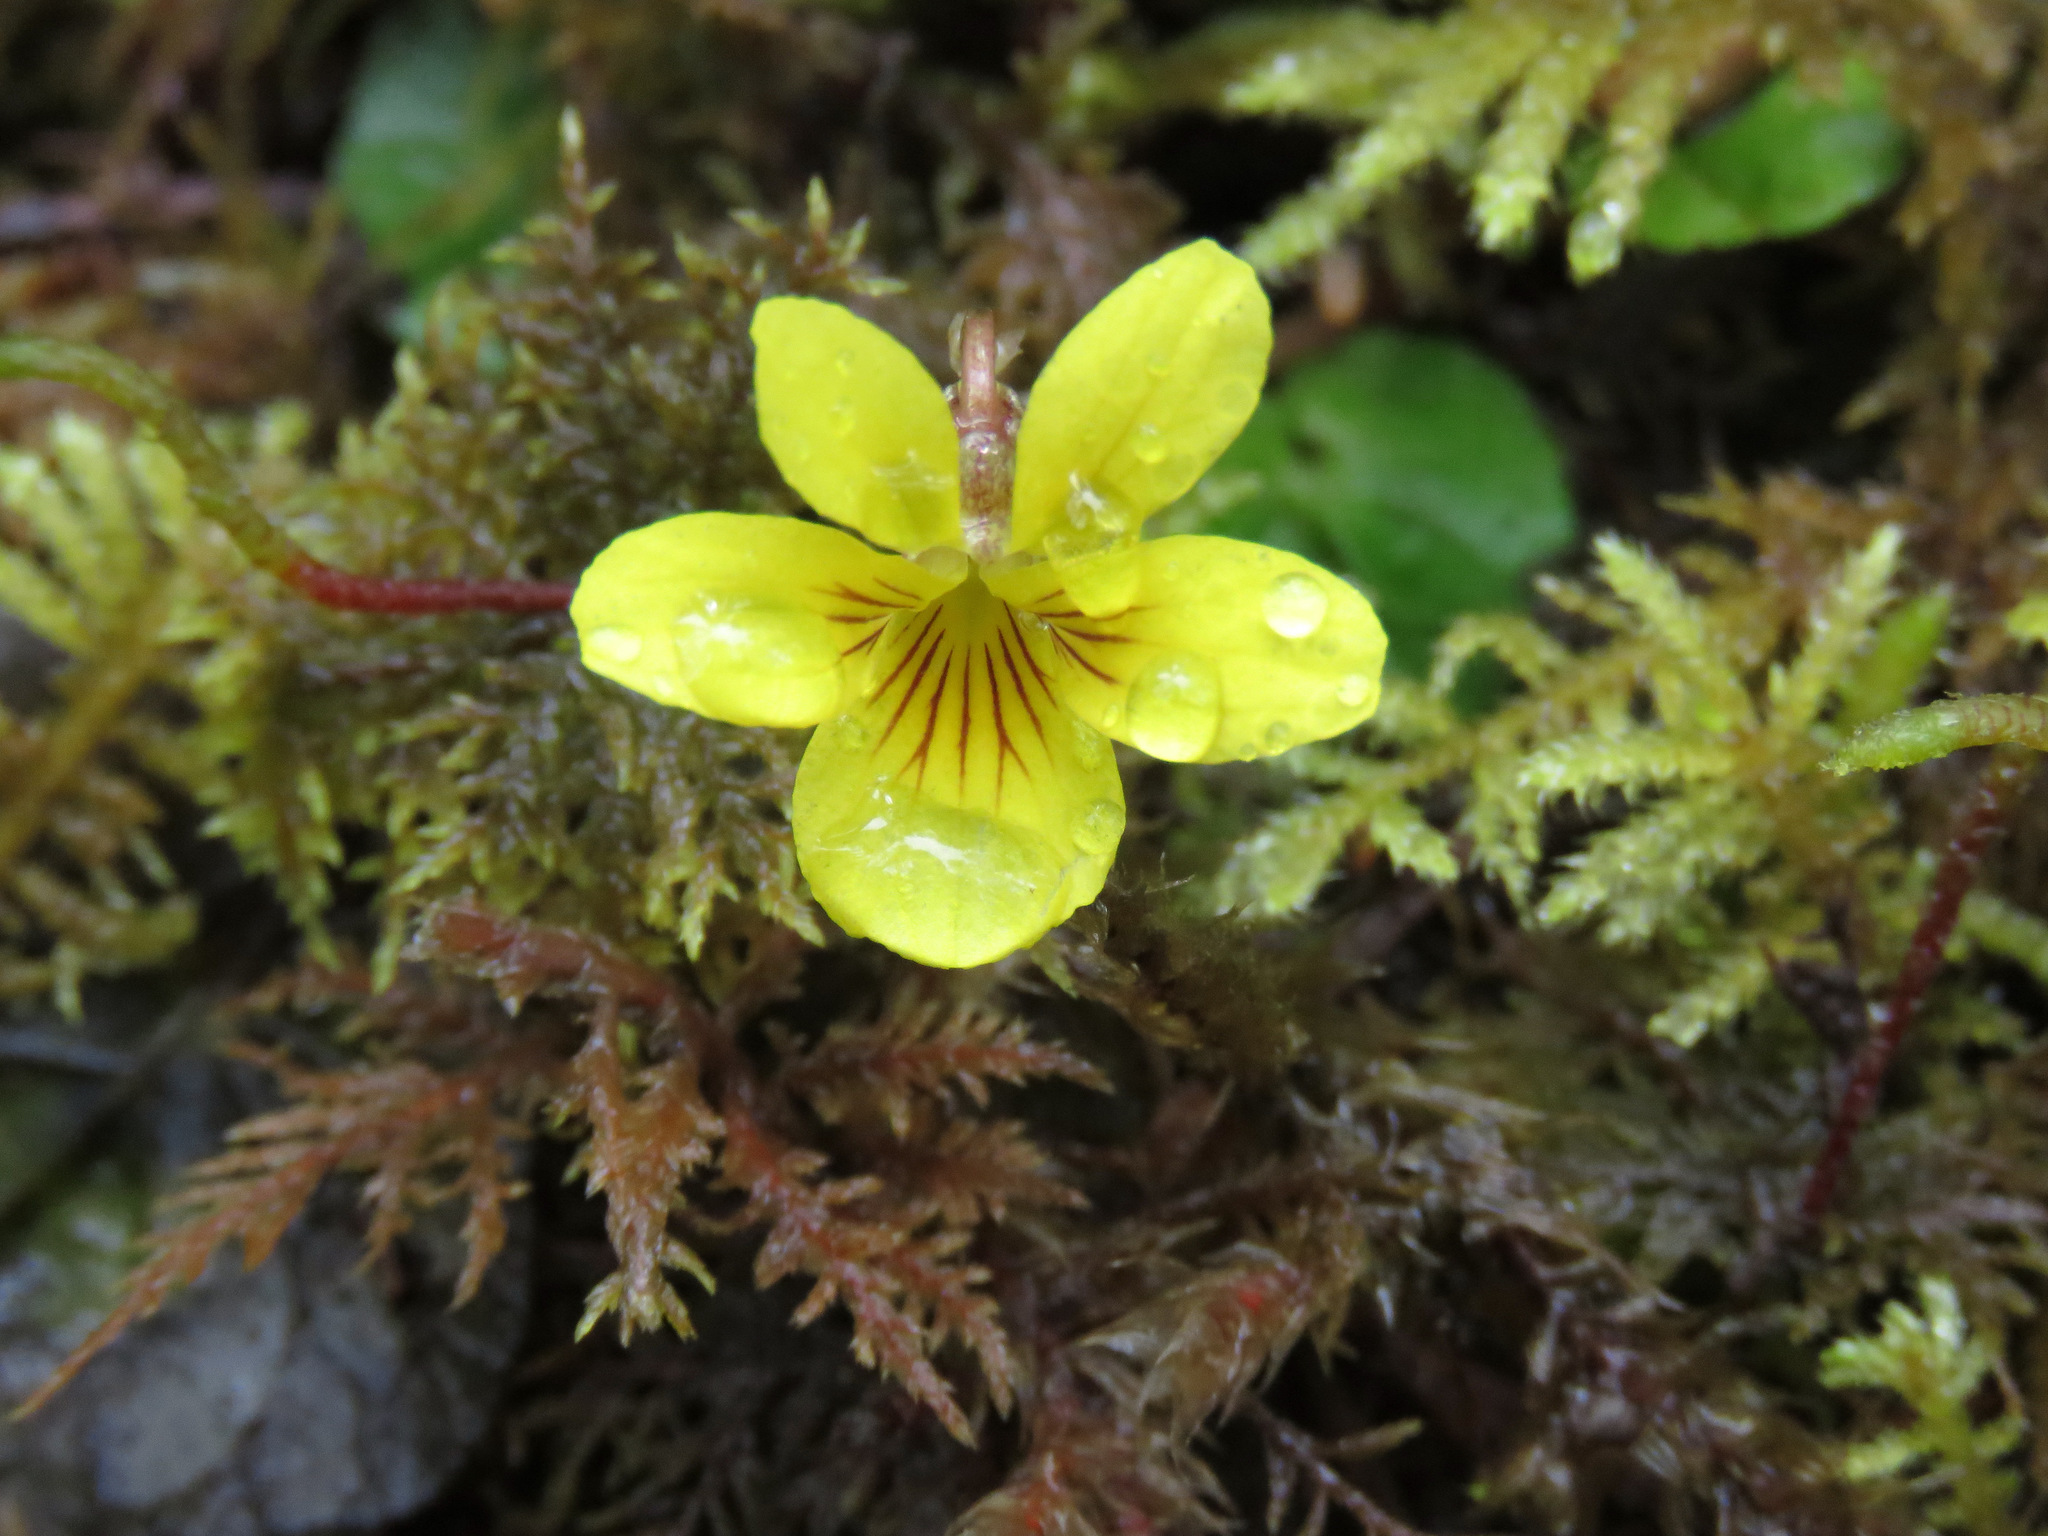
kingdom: Plantae
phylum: Tracheophyta
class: Magnoliopsida
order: Malpighiales
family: Violaceae
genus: Viola
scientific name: Viola sempervirens
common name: Evergreen violet
